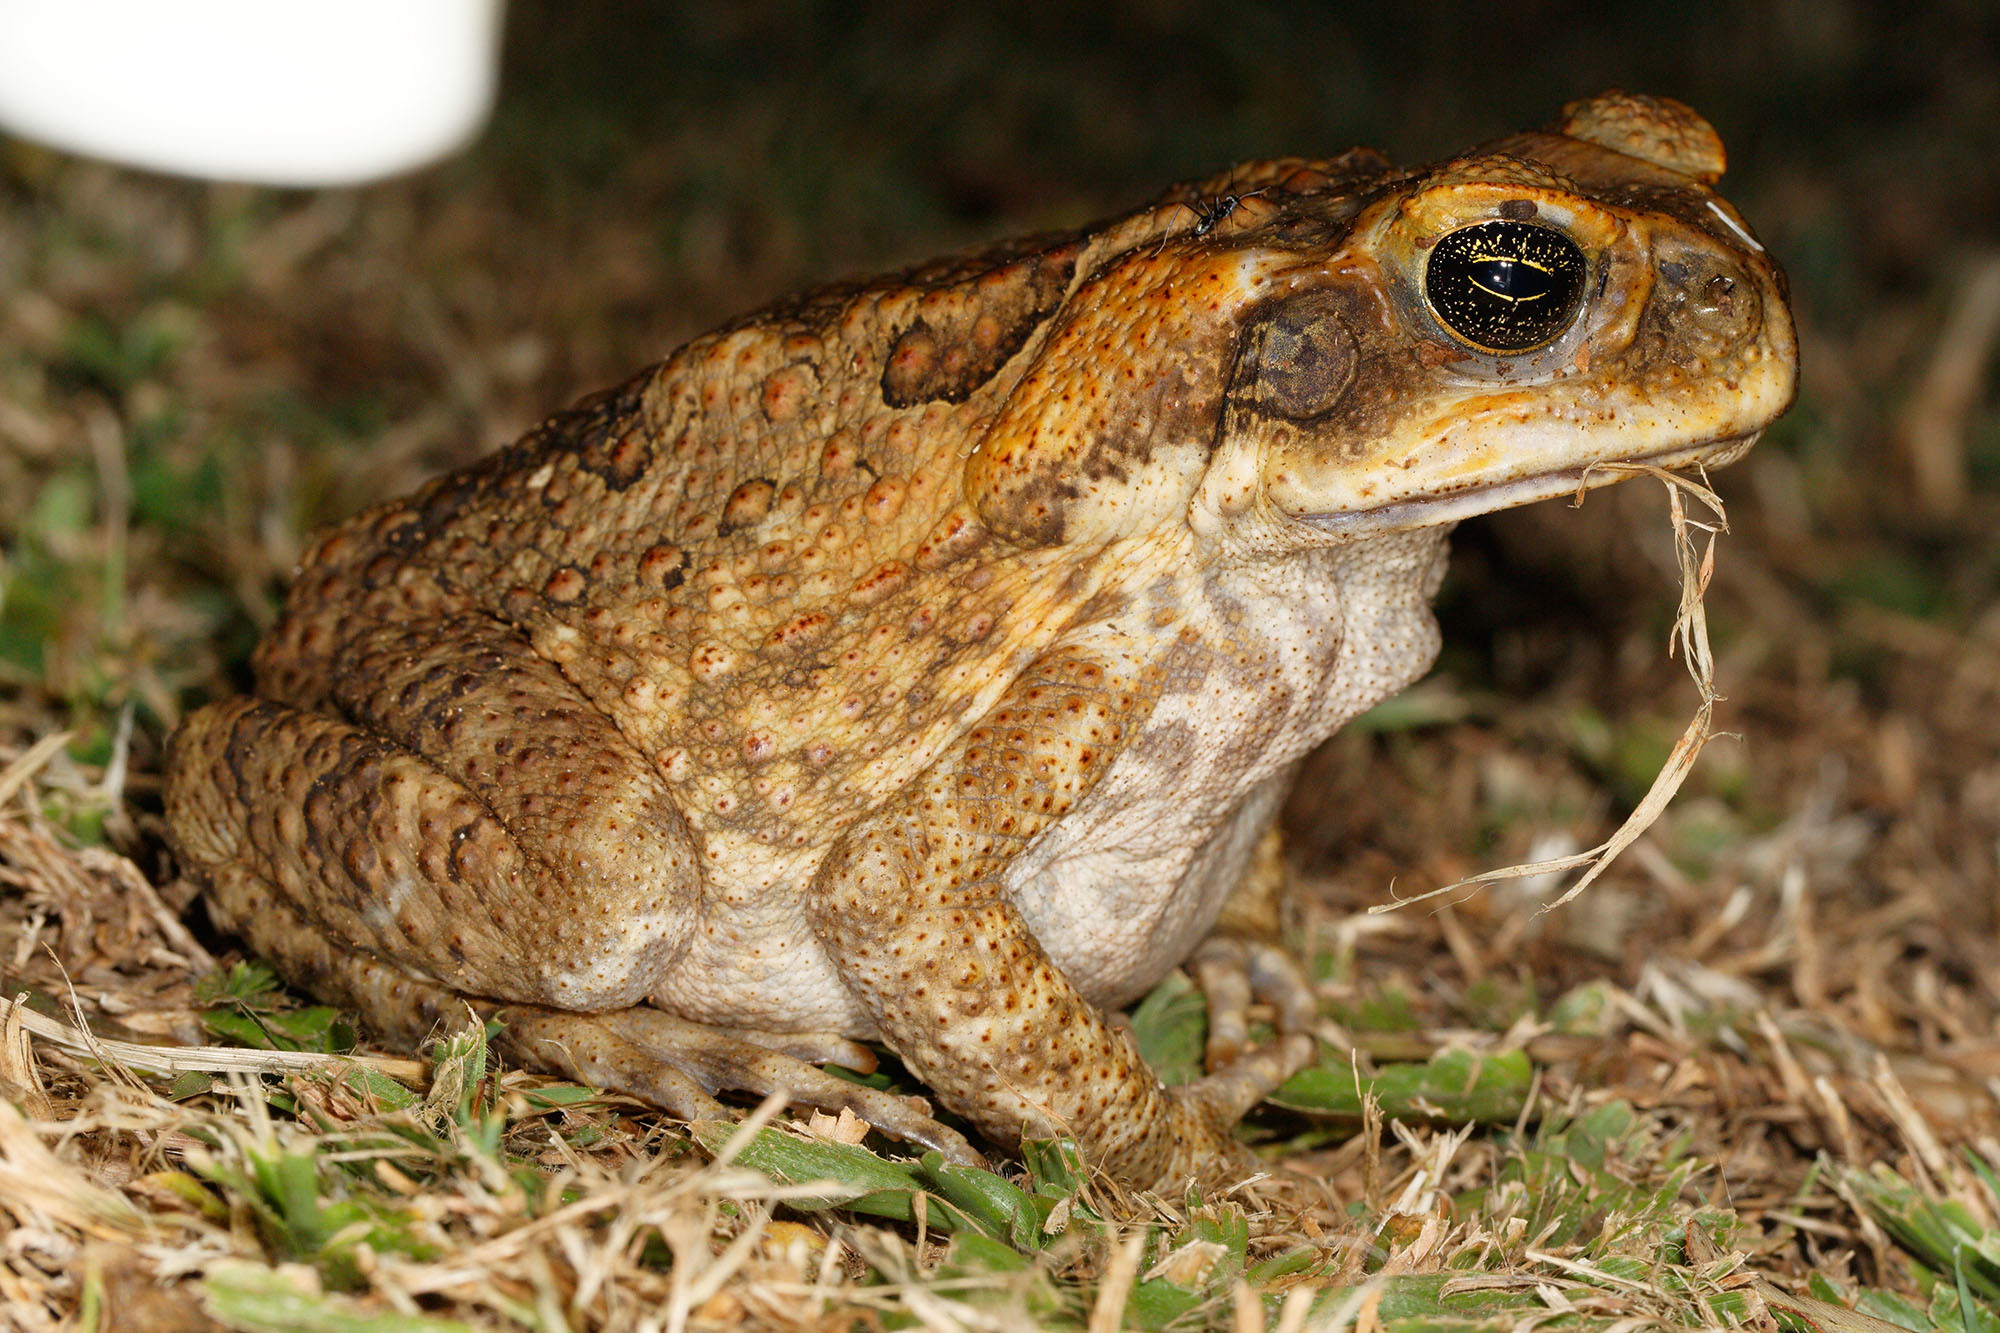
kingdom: Animalia
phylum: Chordata
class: Amphibia
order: Anura
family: Bufonidae
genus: Rhinella
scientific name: Rhinella marina
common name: Cane toad
